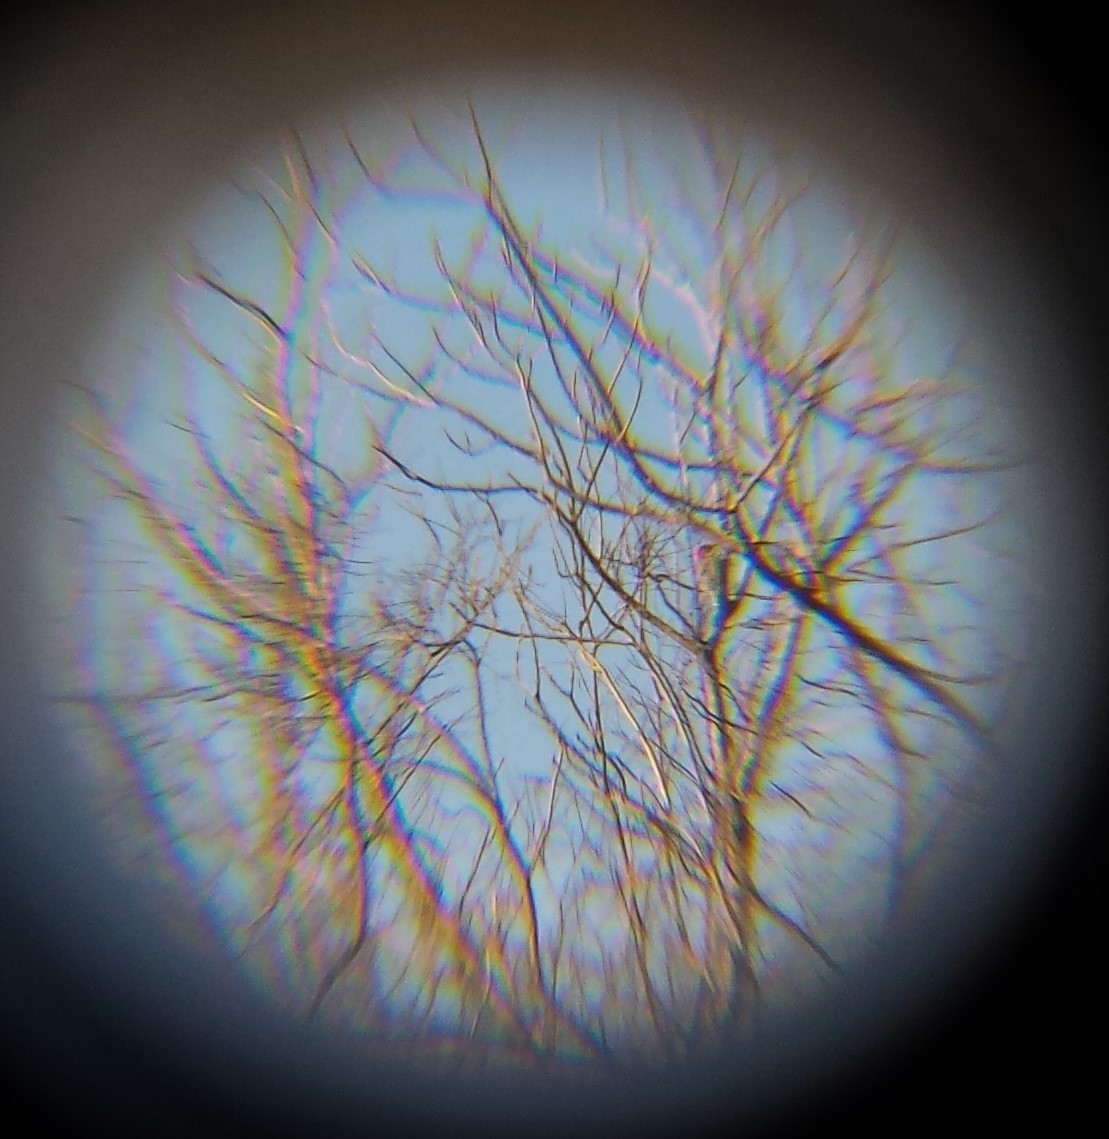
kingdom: Animalia
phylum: Chordata
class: Aves
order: Piciformes
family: Picidae
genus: Melanerpes
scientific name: Melanerpes carolinus
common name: Red-bellied woodpecker
